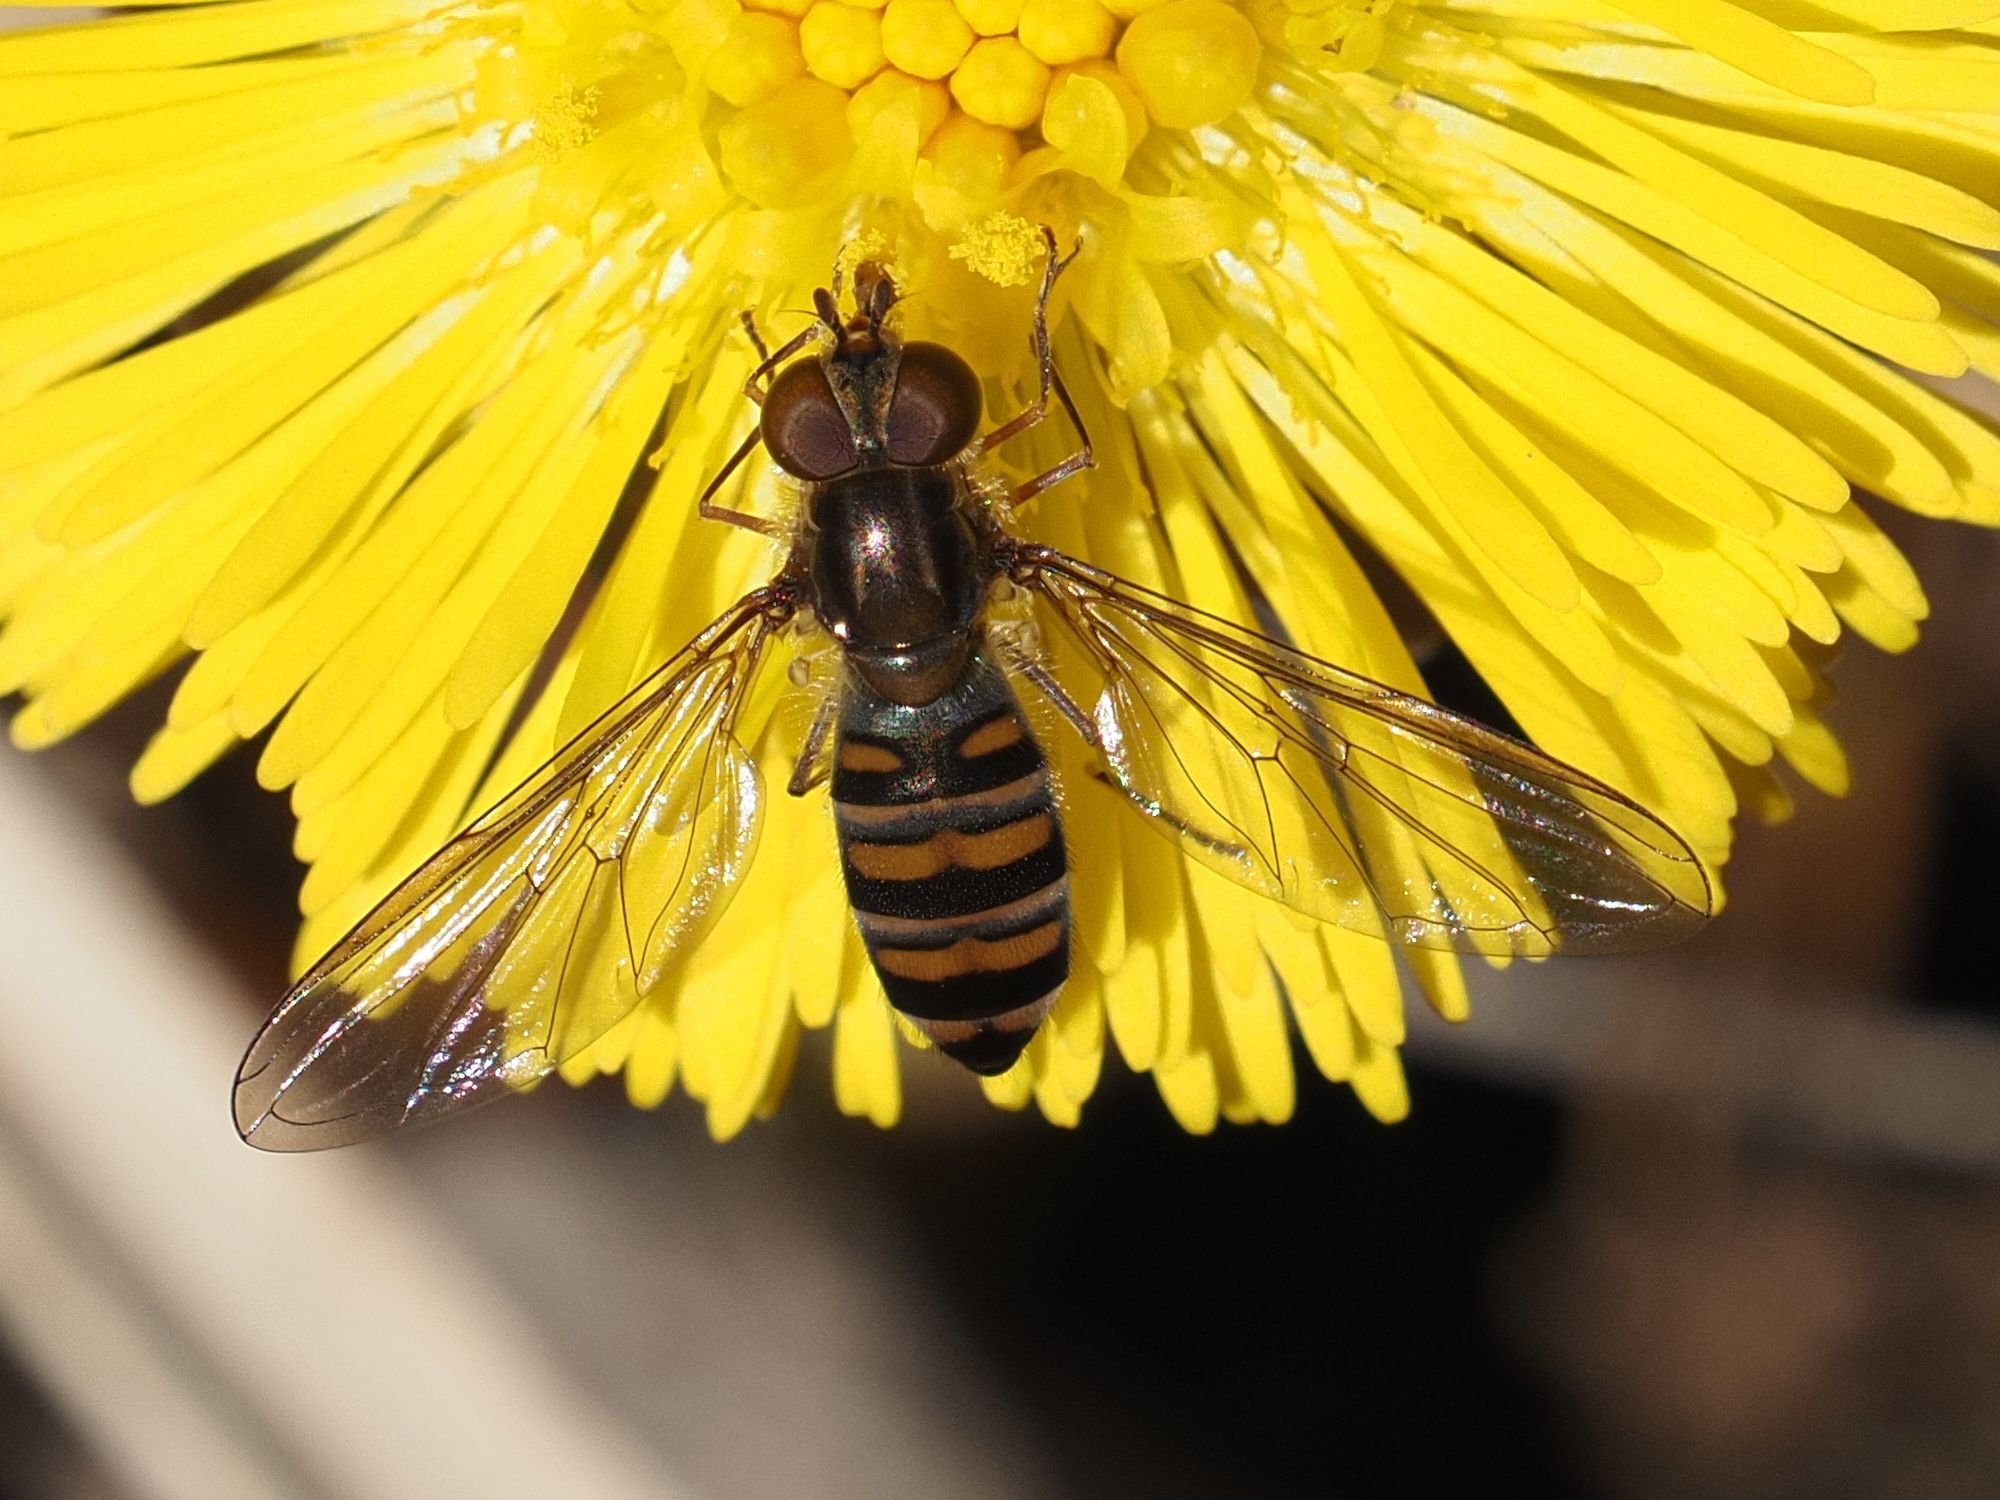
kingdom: Animalia
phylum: Arthropoda
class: Insecta
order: Diptera
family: Syrphidae
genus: Episyrphus
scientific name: Episyrphus balteatus
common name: Marmalade hoverfly
